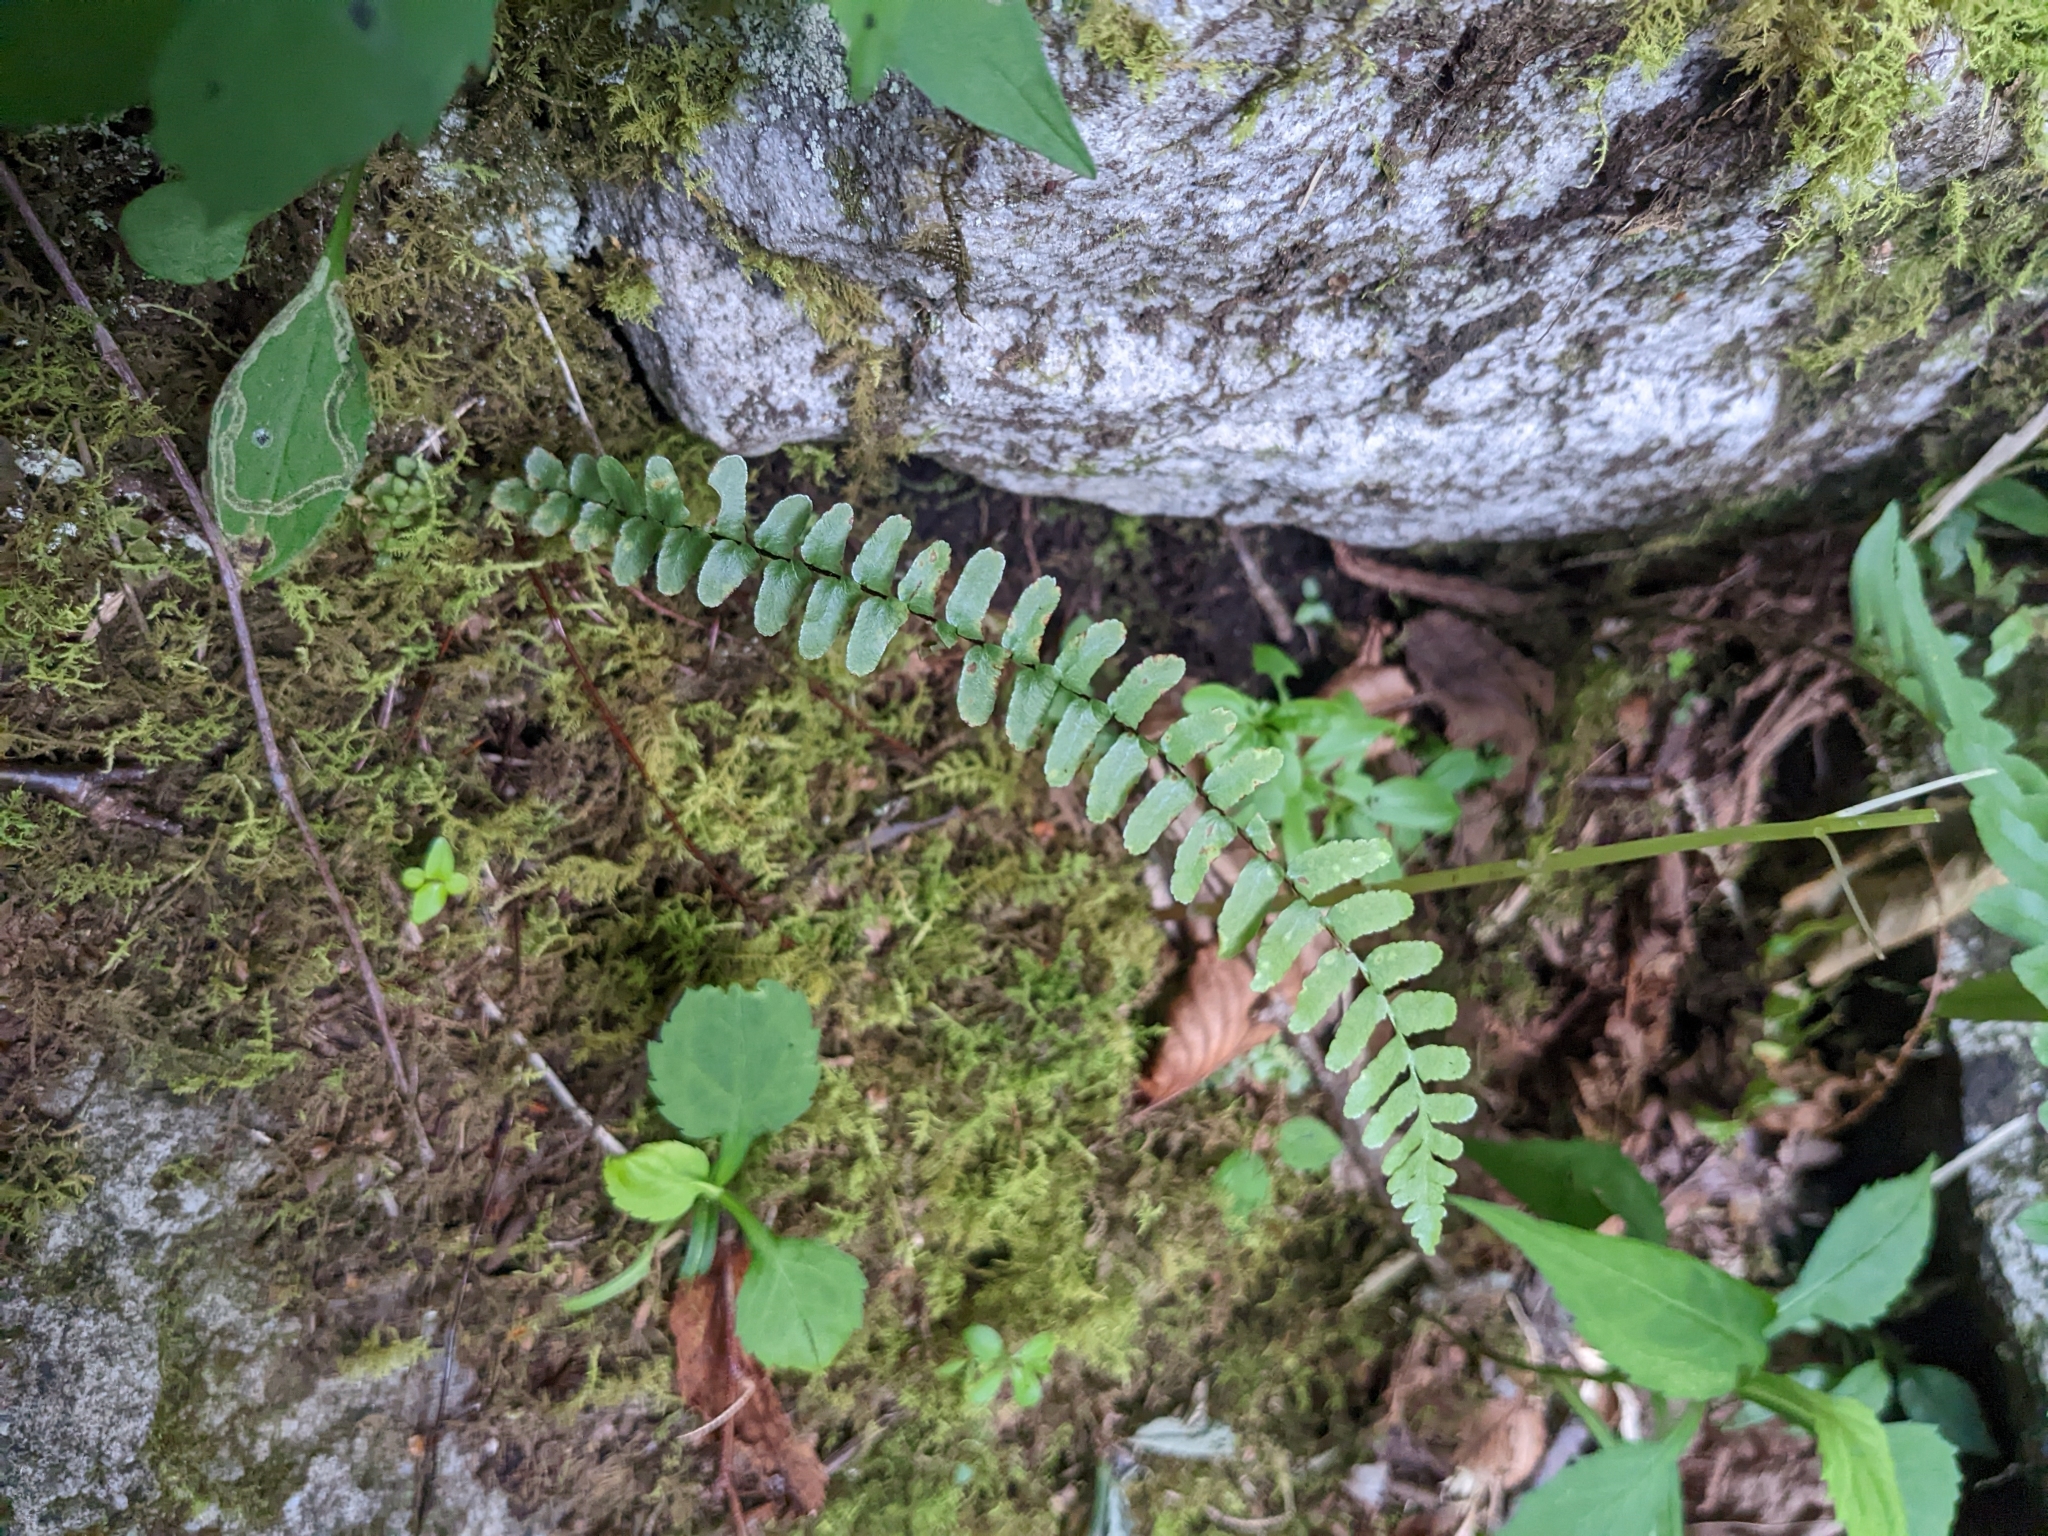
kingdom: Plantae
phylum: Tracheophyta
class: Polypodiopsida
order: Polypodiales
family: Aspleniaceae
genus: Asplenium
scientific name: Asplenium platyneuron
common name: Ebony spleenwort
